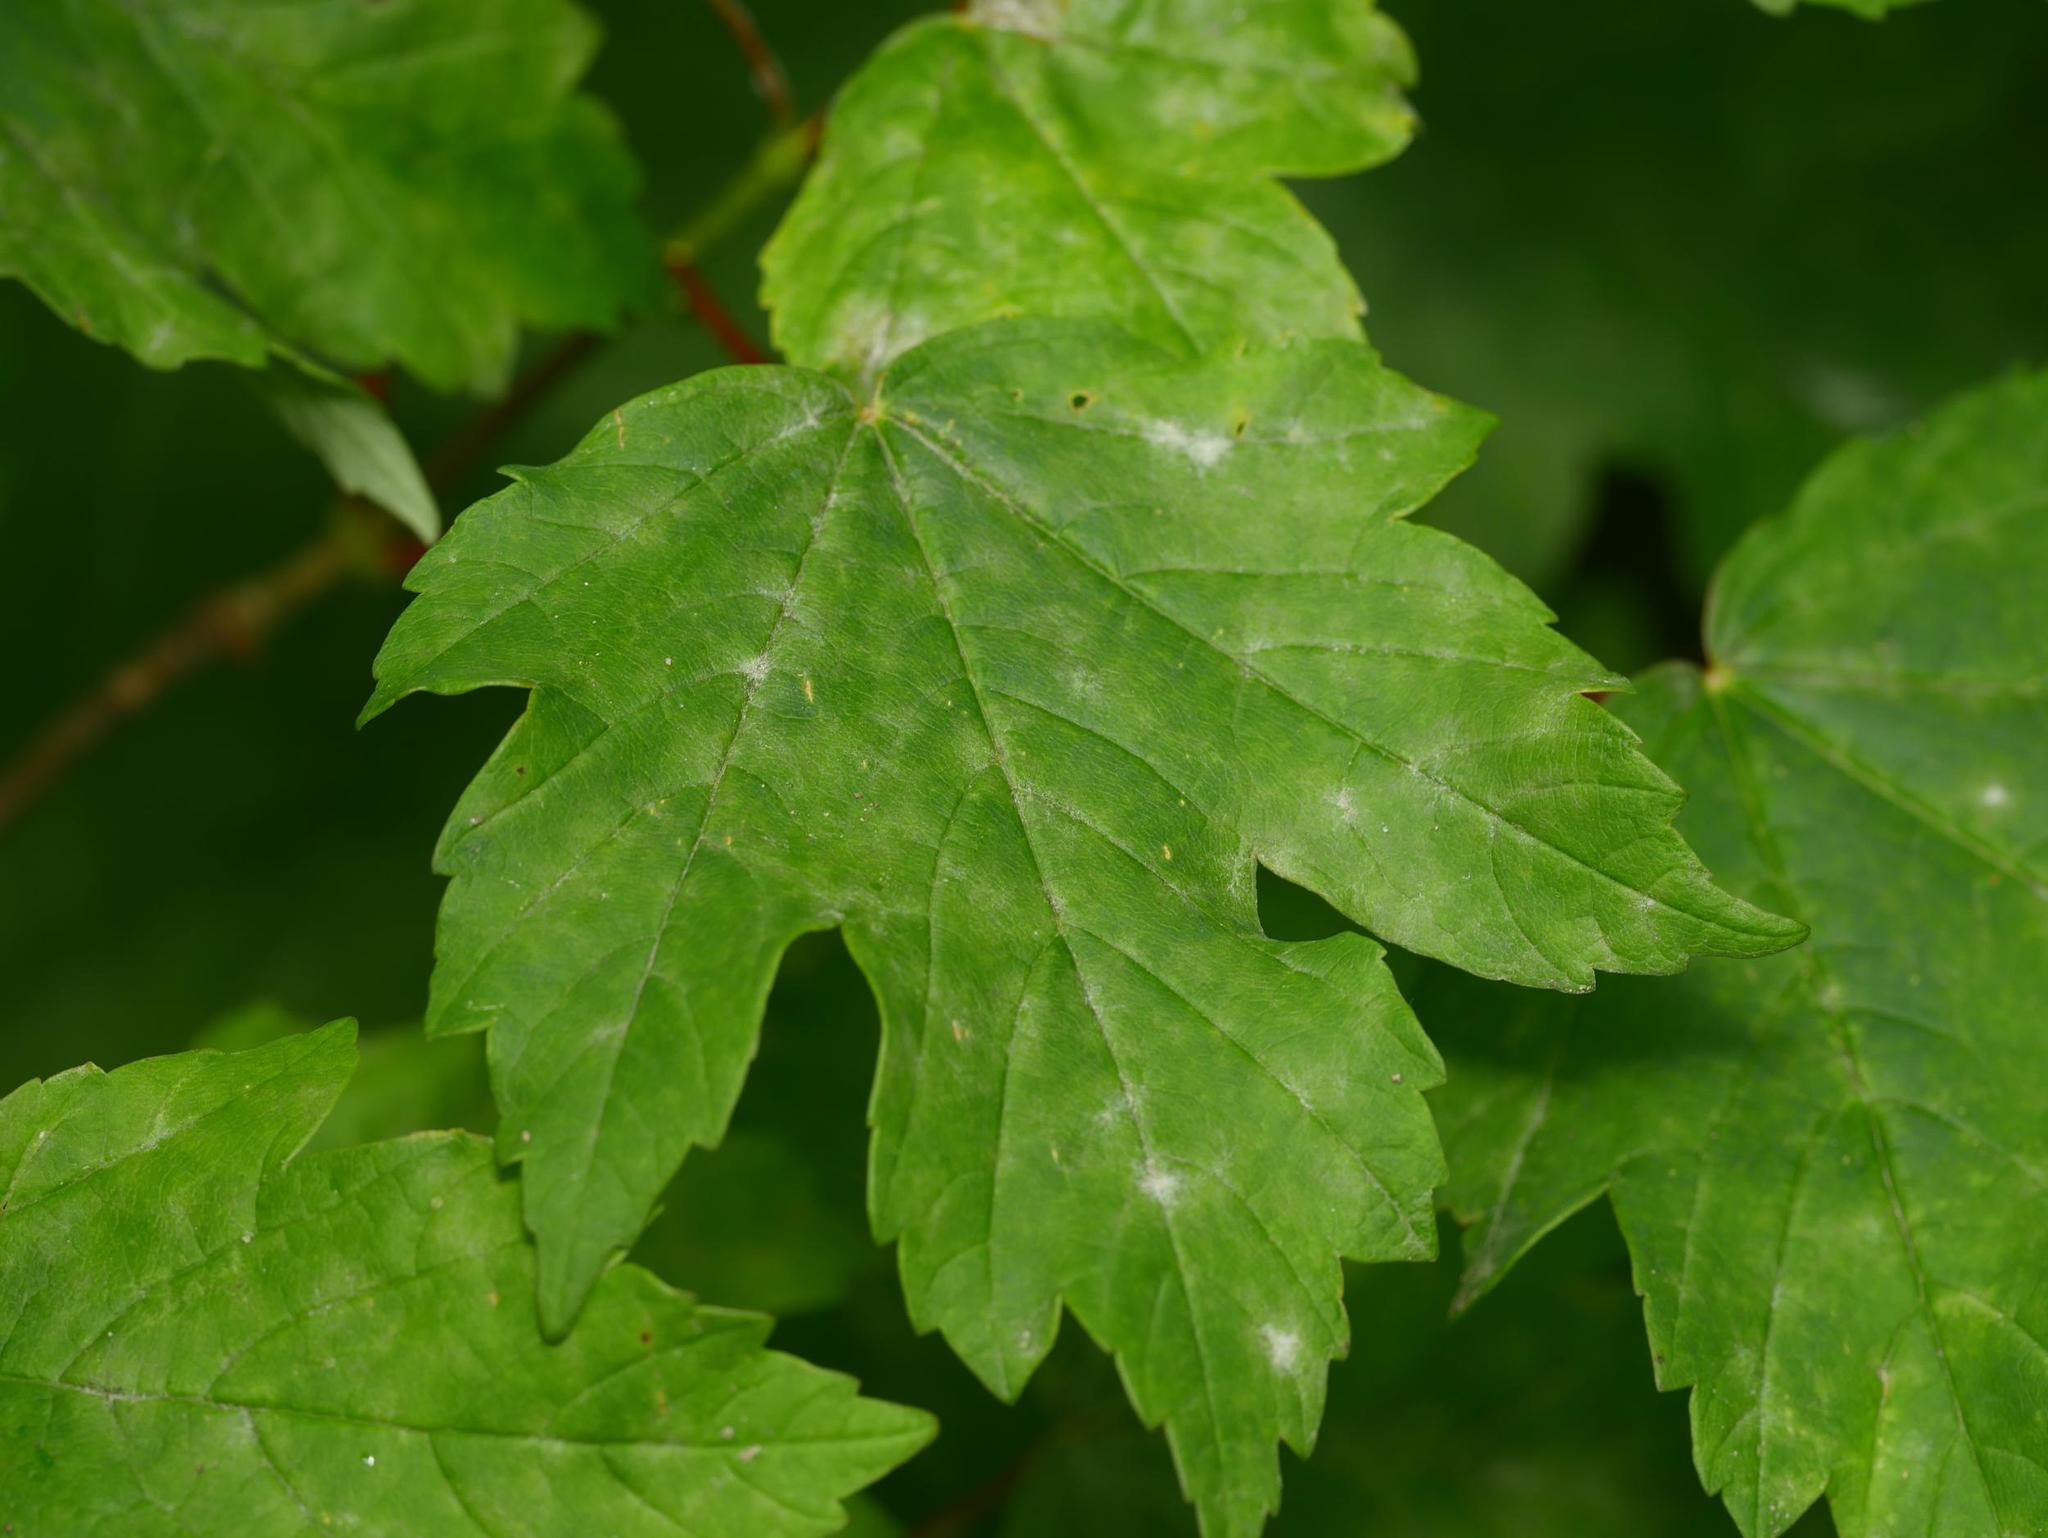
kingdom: Plantae
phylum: Tracheophyta
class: Magnoliopsida
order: Sapindales
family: Sapindaceae
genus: Acer
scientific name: Acer pseudoplatanus
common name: Sycamore
